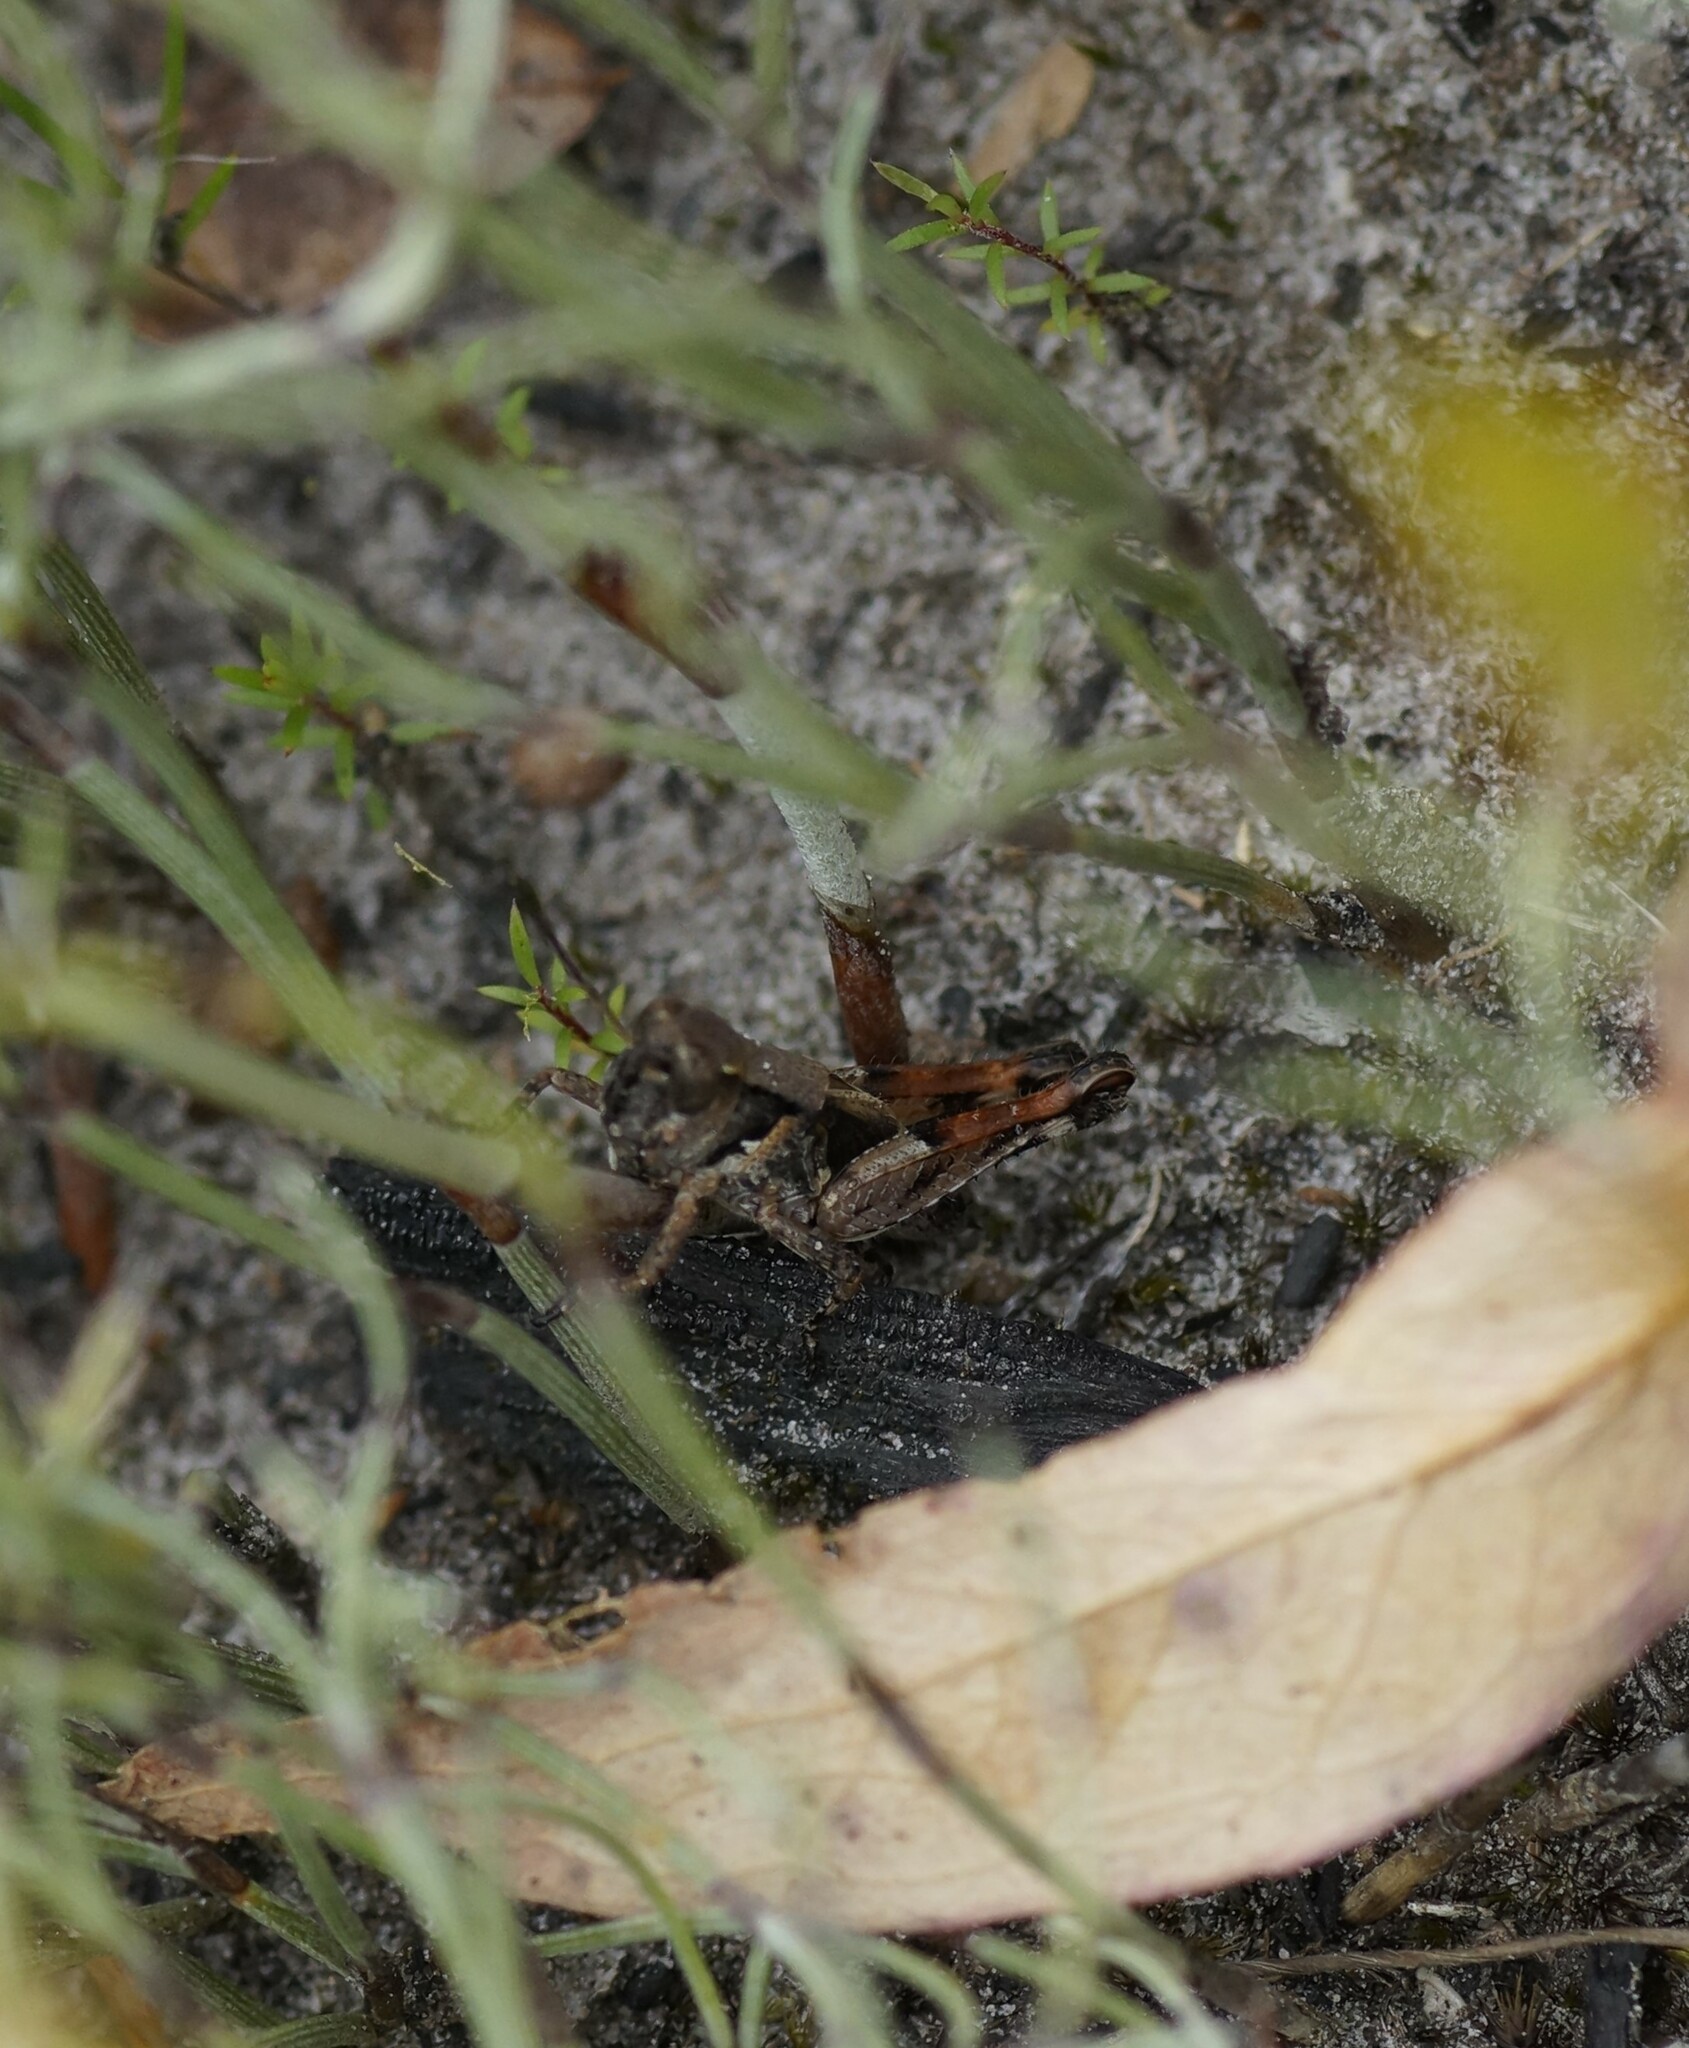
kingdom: Animalia
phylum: Arthropoda
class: Insecta
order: Orthoptera
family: Acrididae
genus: Phaulacridium
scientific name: Phaulacridium vittatum
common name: Wingless grasshopper
